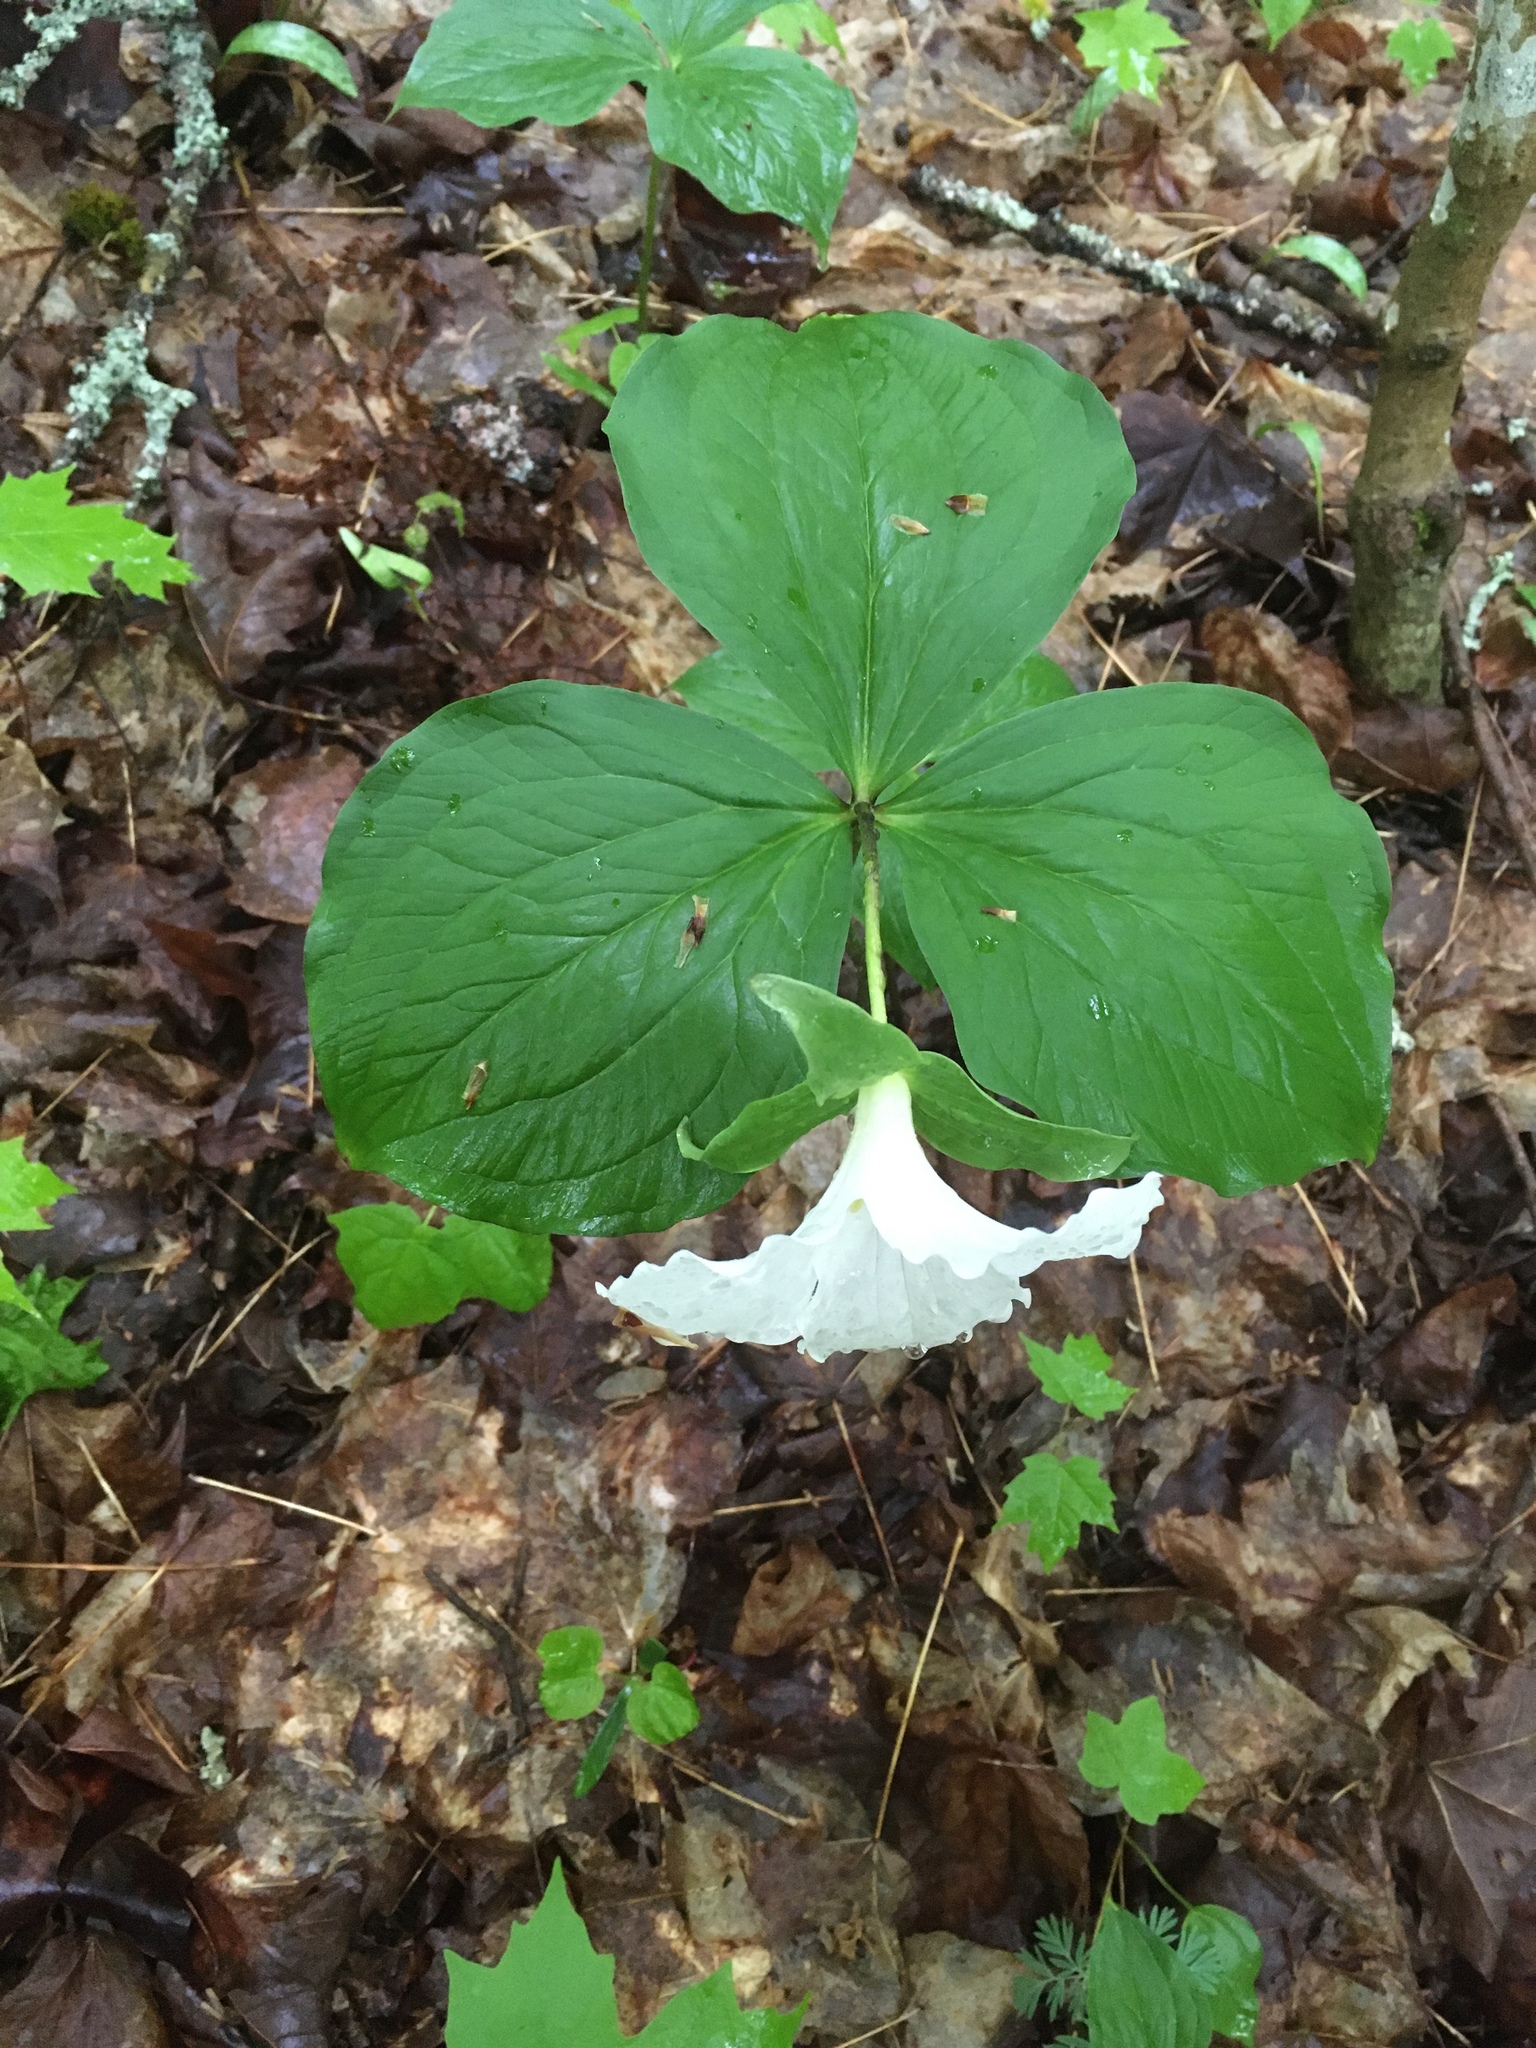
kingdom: Plantae
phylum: Tracheophyta
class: Liliopsida
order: Liliales
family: Melanthiaceae
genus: Trillium
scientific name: Trillium grandiflorum
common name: Great white trillium
